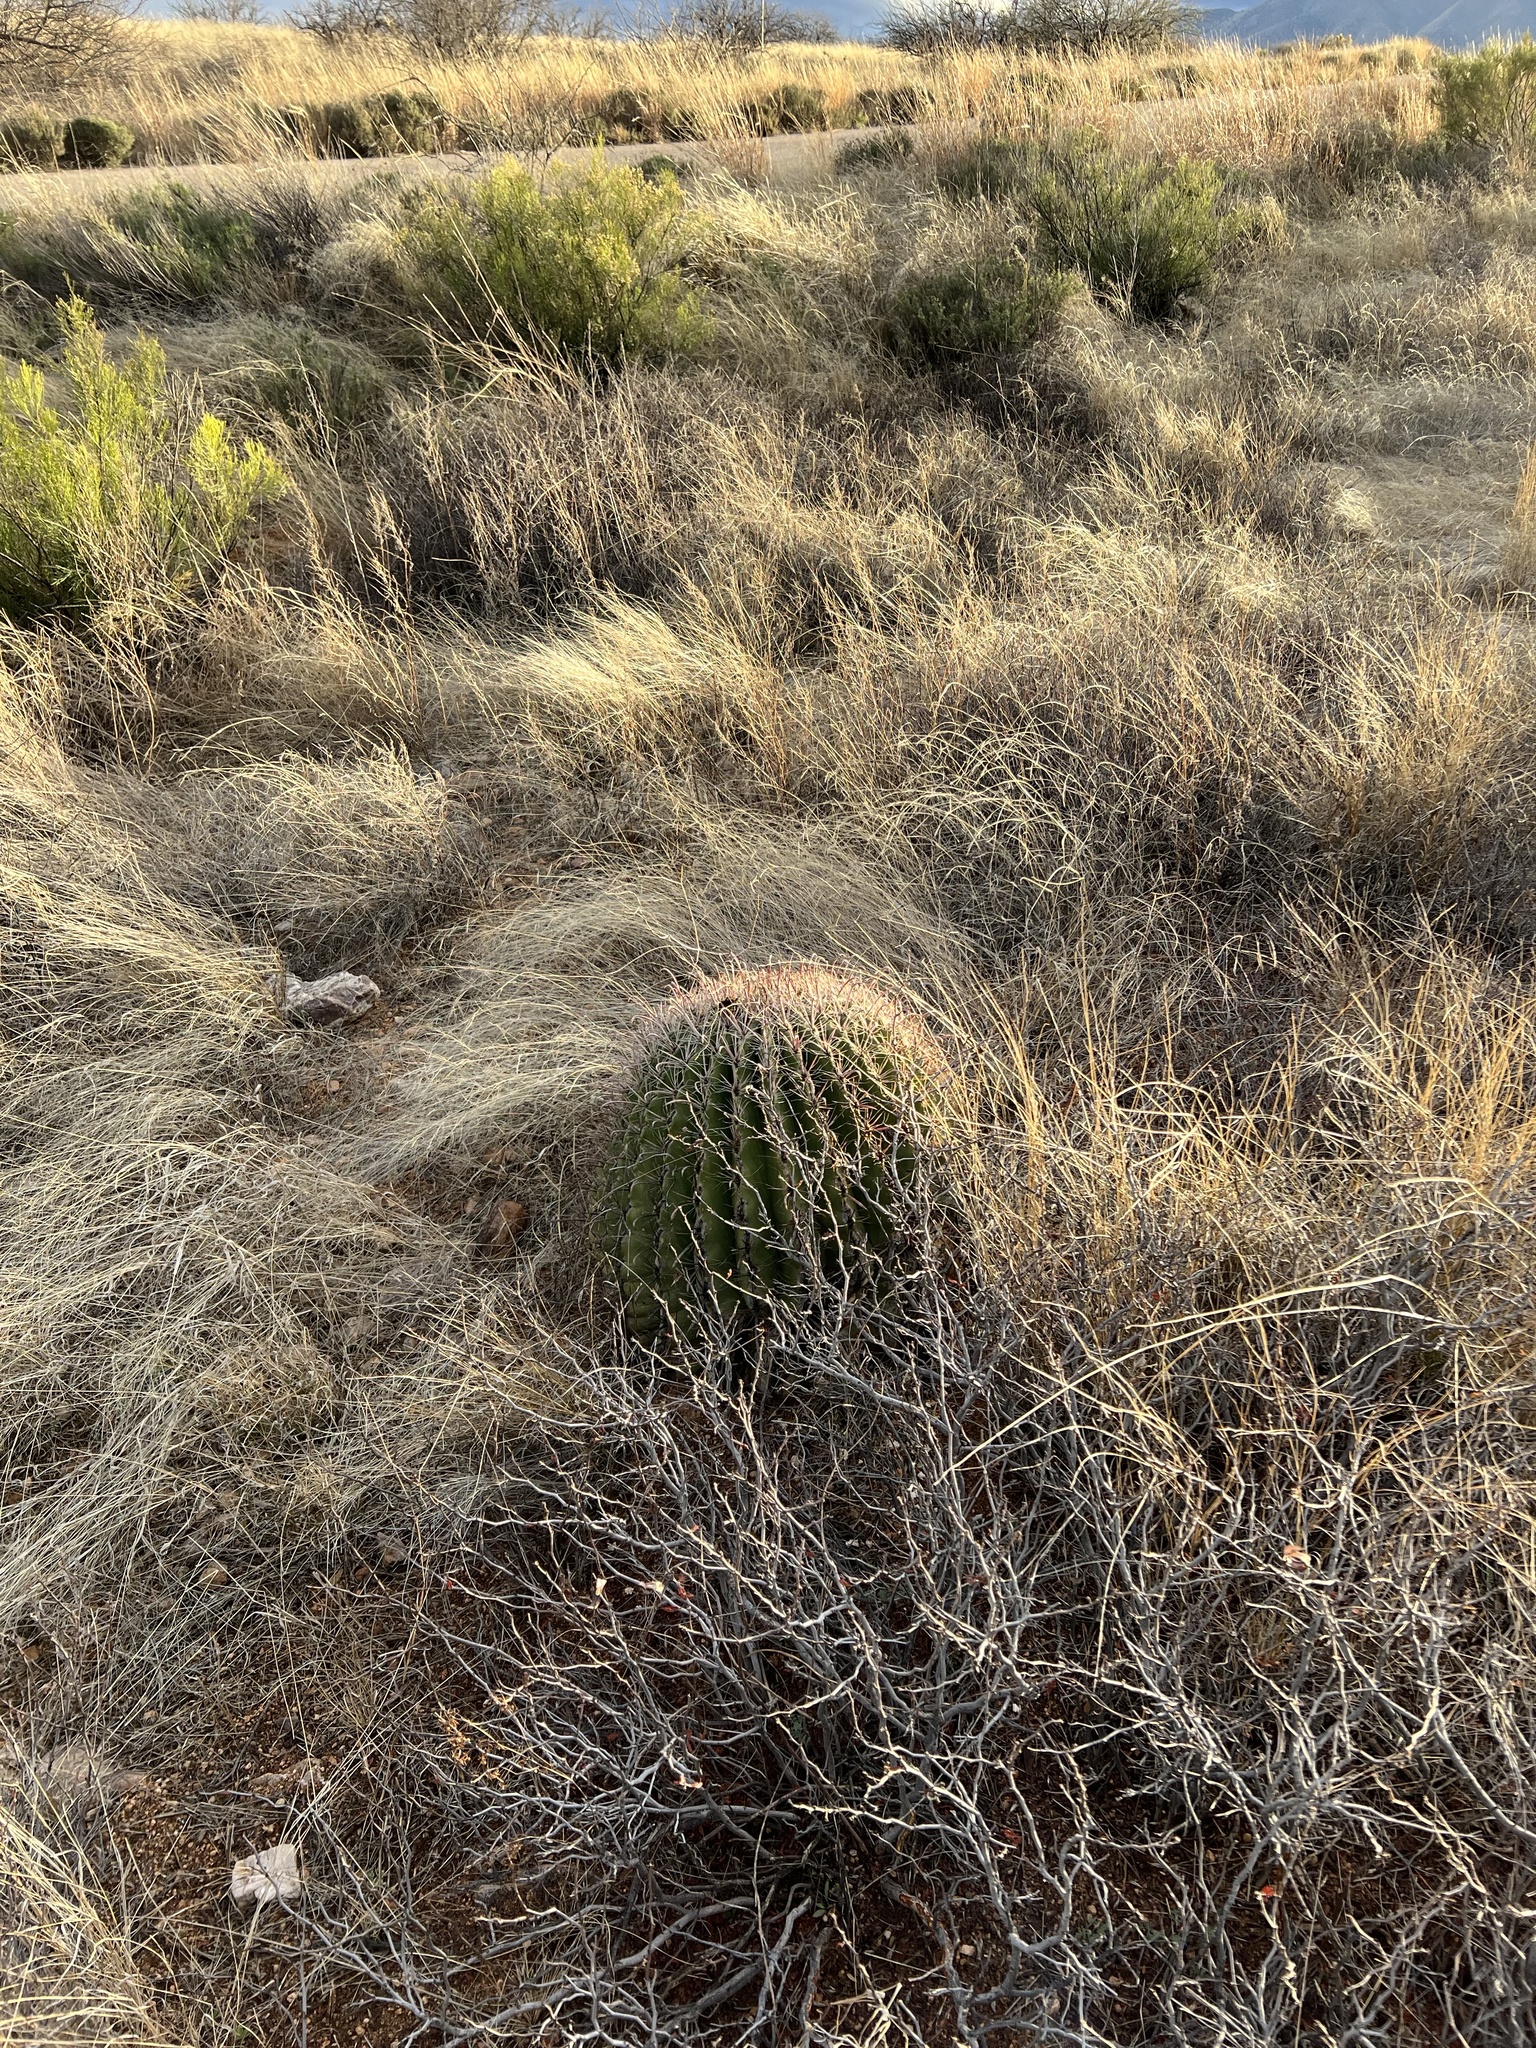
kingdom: Plantae
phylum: Tracheophyta
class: Magnoliopsida
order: Caryophyllales
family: Cactaceae
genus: Ferocactus
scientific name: Ferocactus wislizeni
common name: Candy barrel cactus
